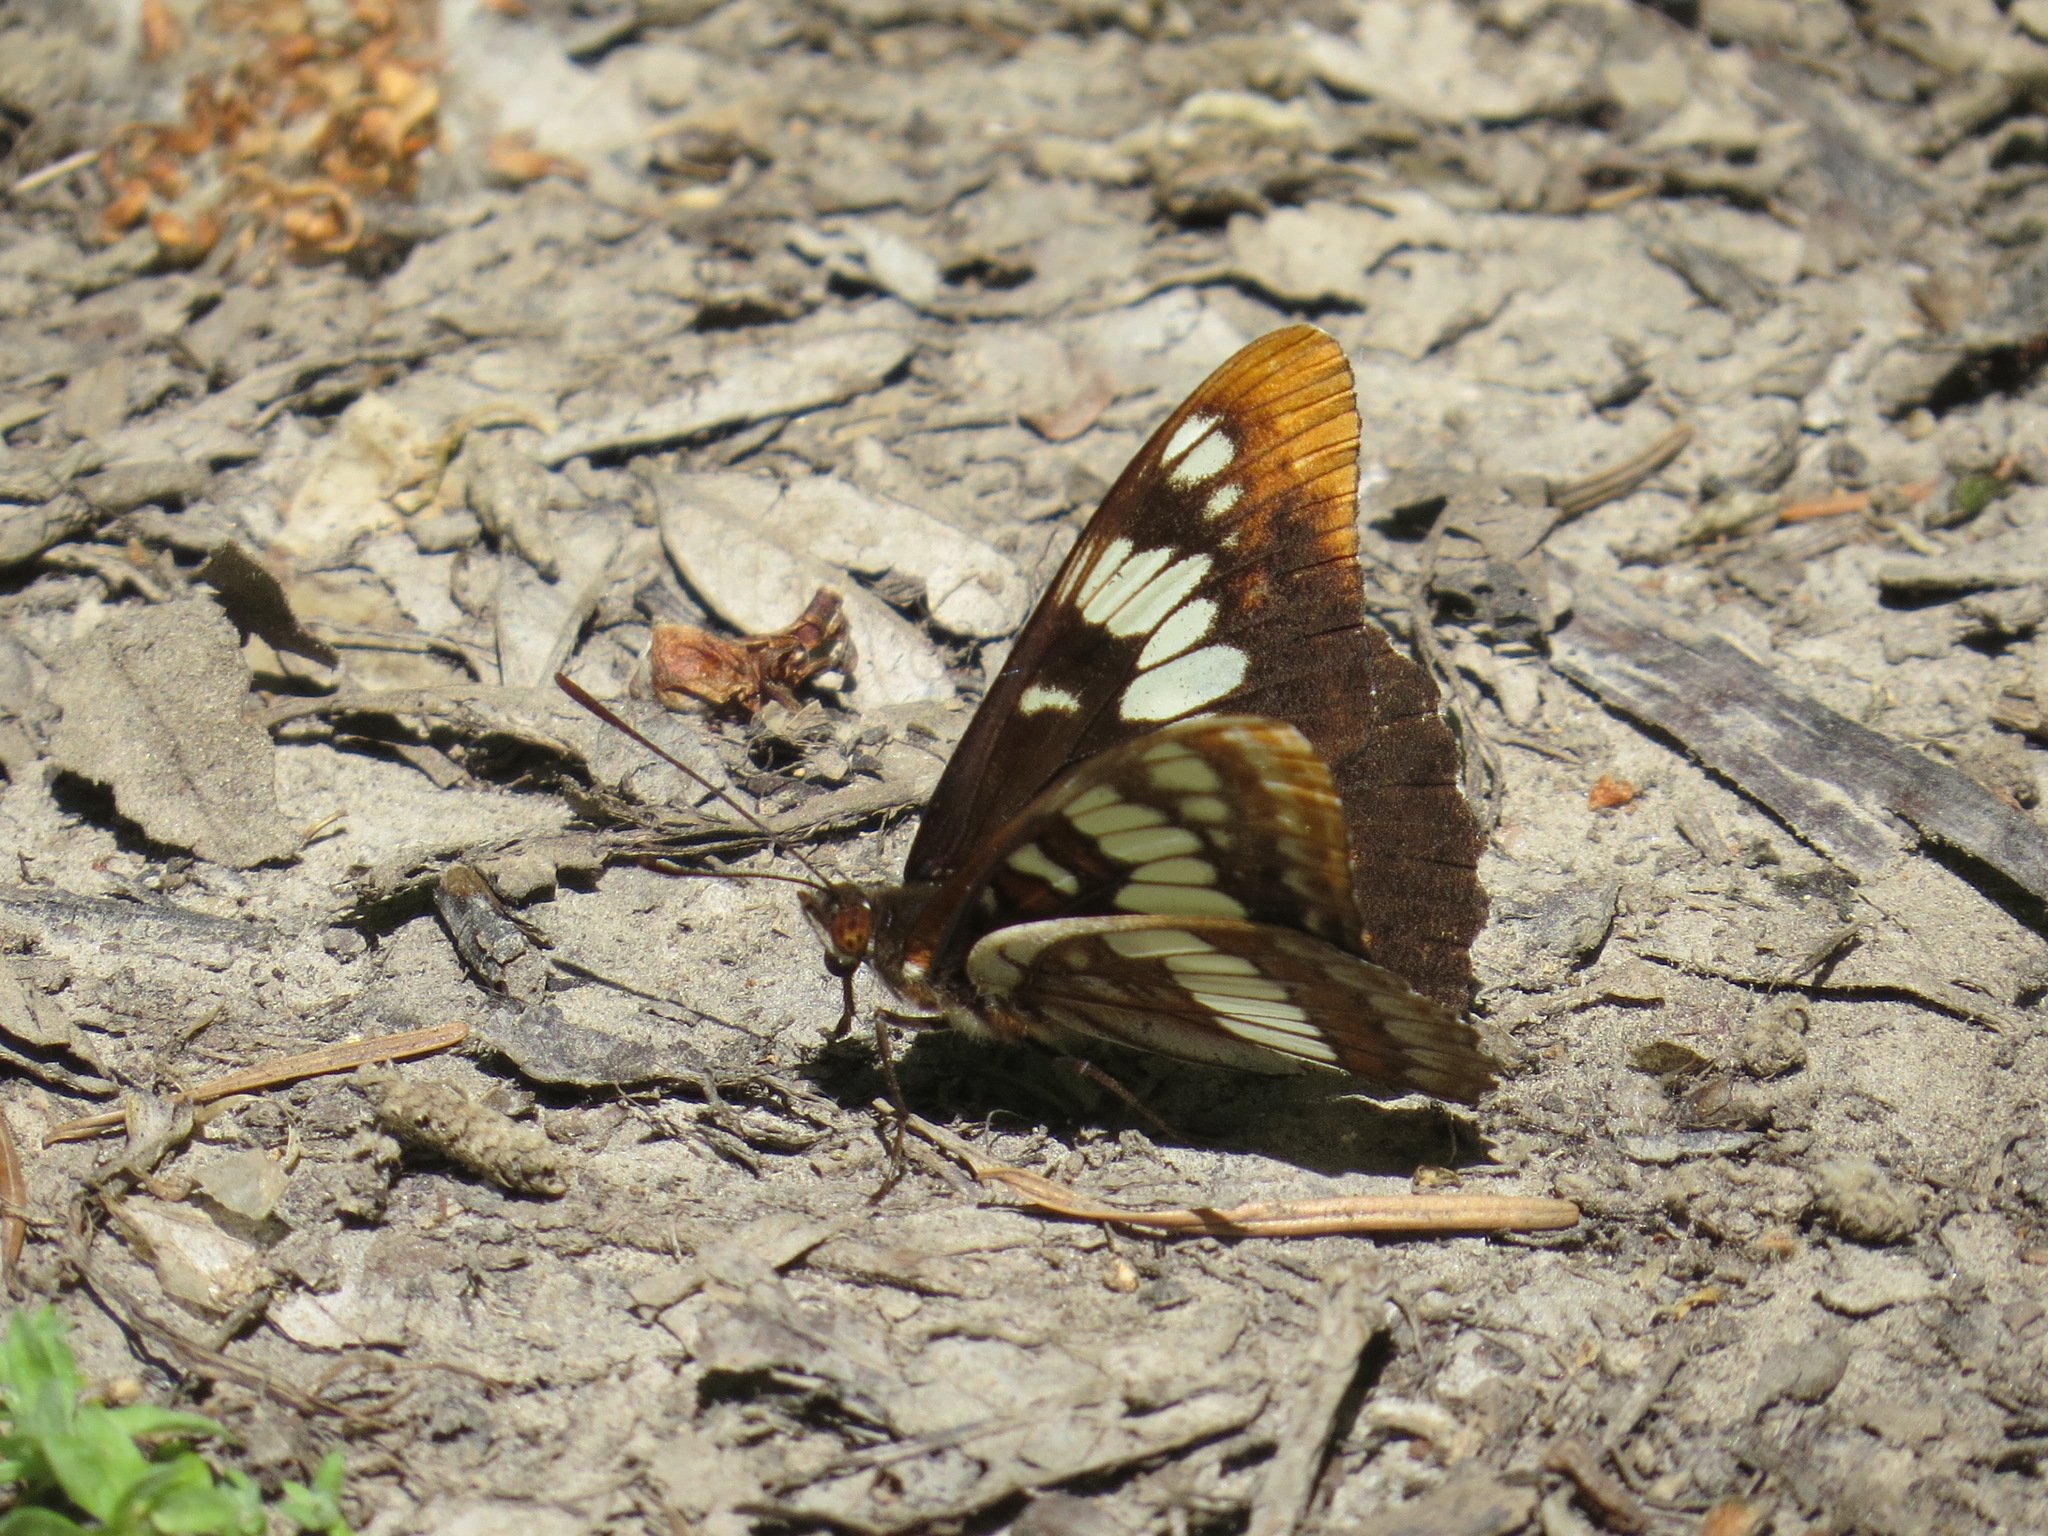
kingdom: Animalia
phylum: Arthropoda
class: Insecta
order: Lepidoptera
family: Nymphalidae
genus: Limenitis
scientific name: Limenitis lorquini
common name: Lorquin's admiral
